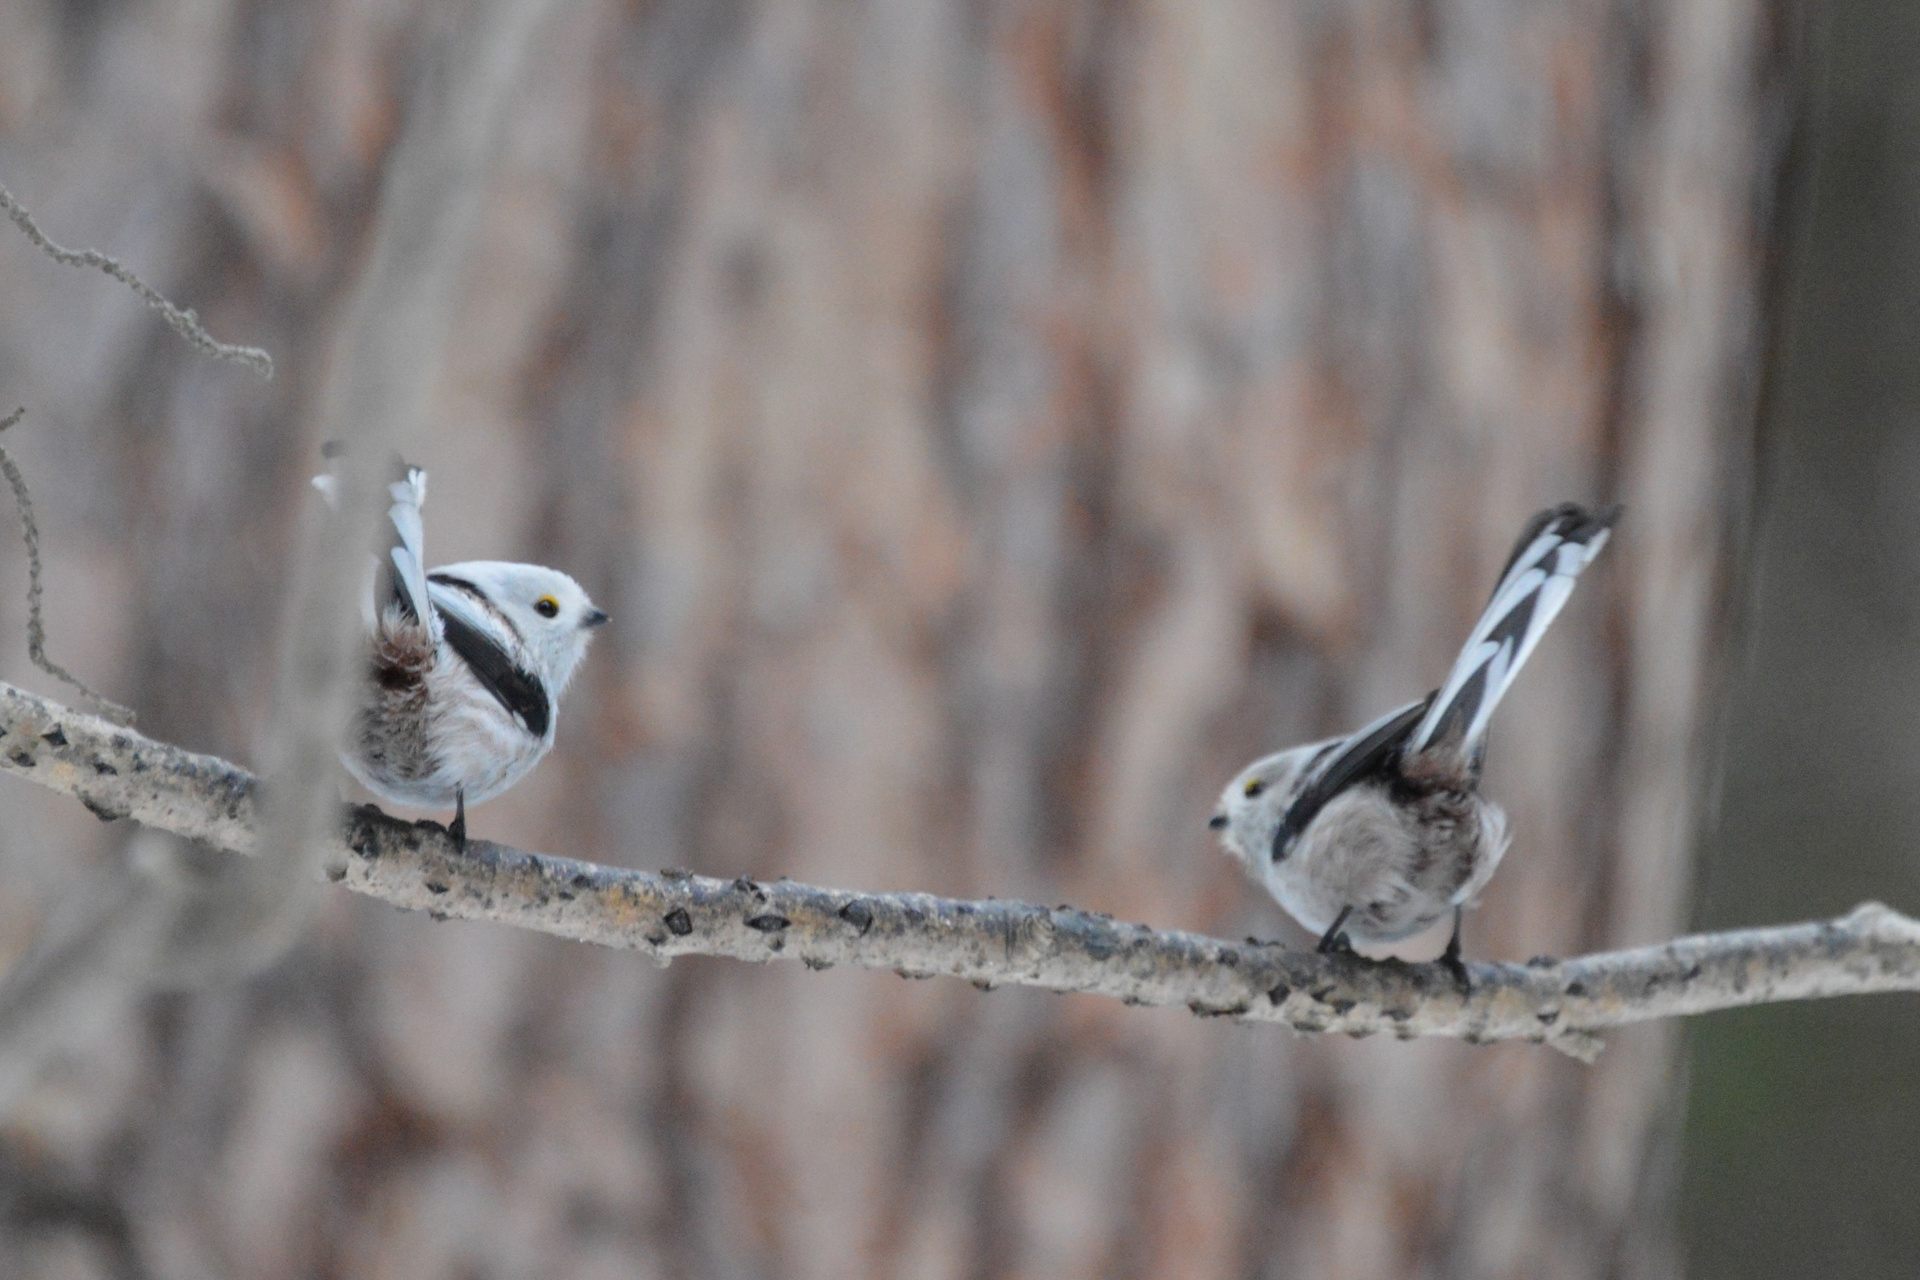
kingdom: Animalia
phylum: Chordata
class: Aves
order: Passeriformes
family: Aegithalidae
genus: Aegithalos
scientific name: Aegithalos caudatus
